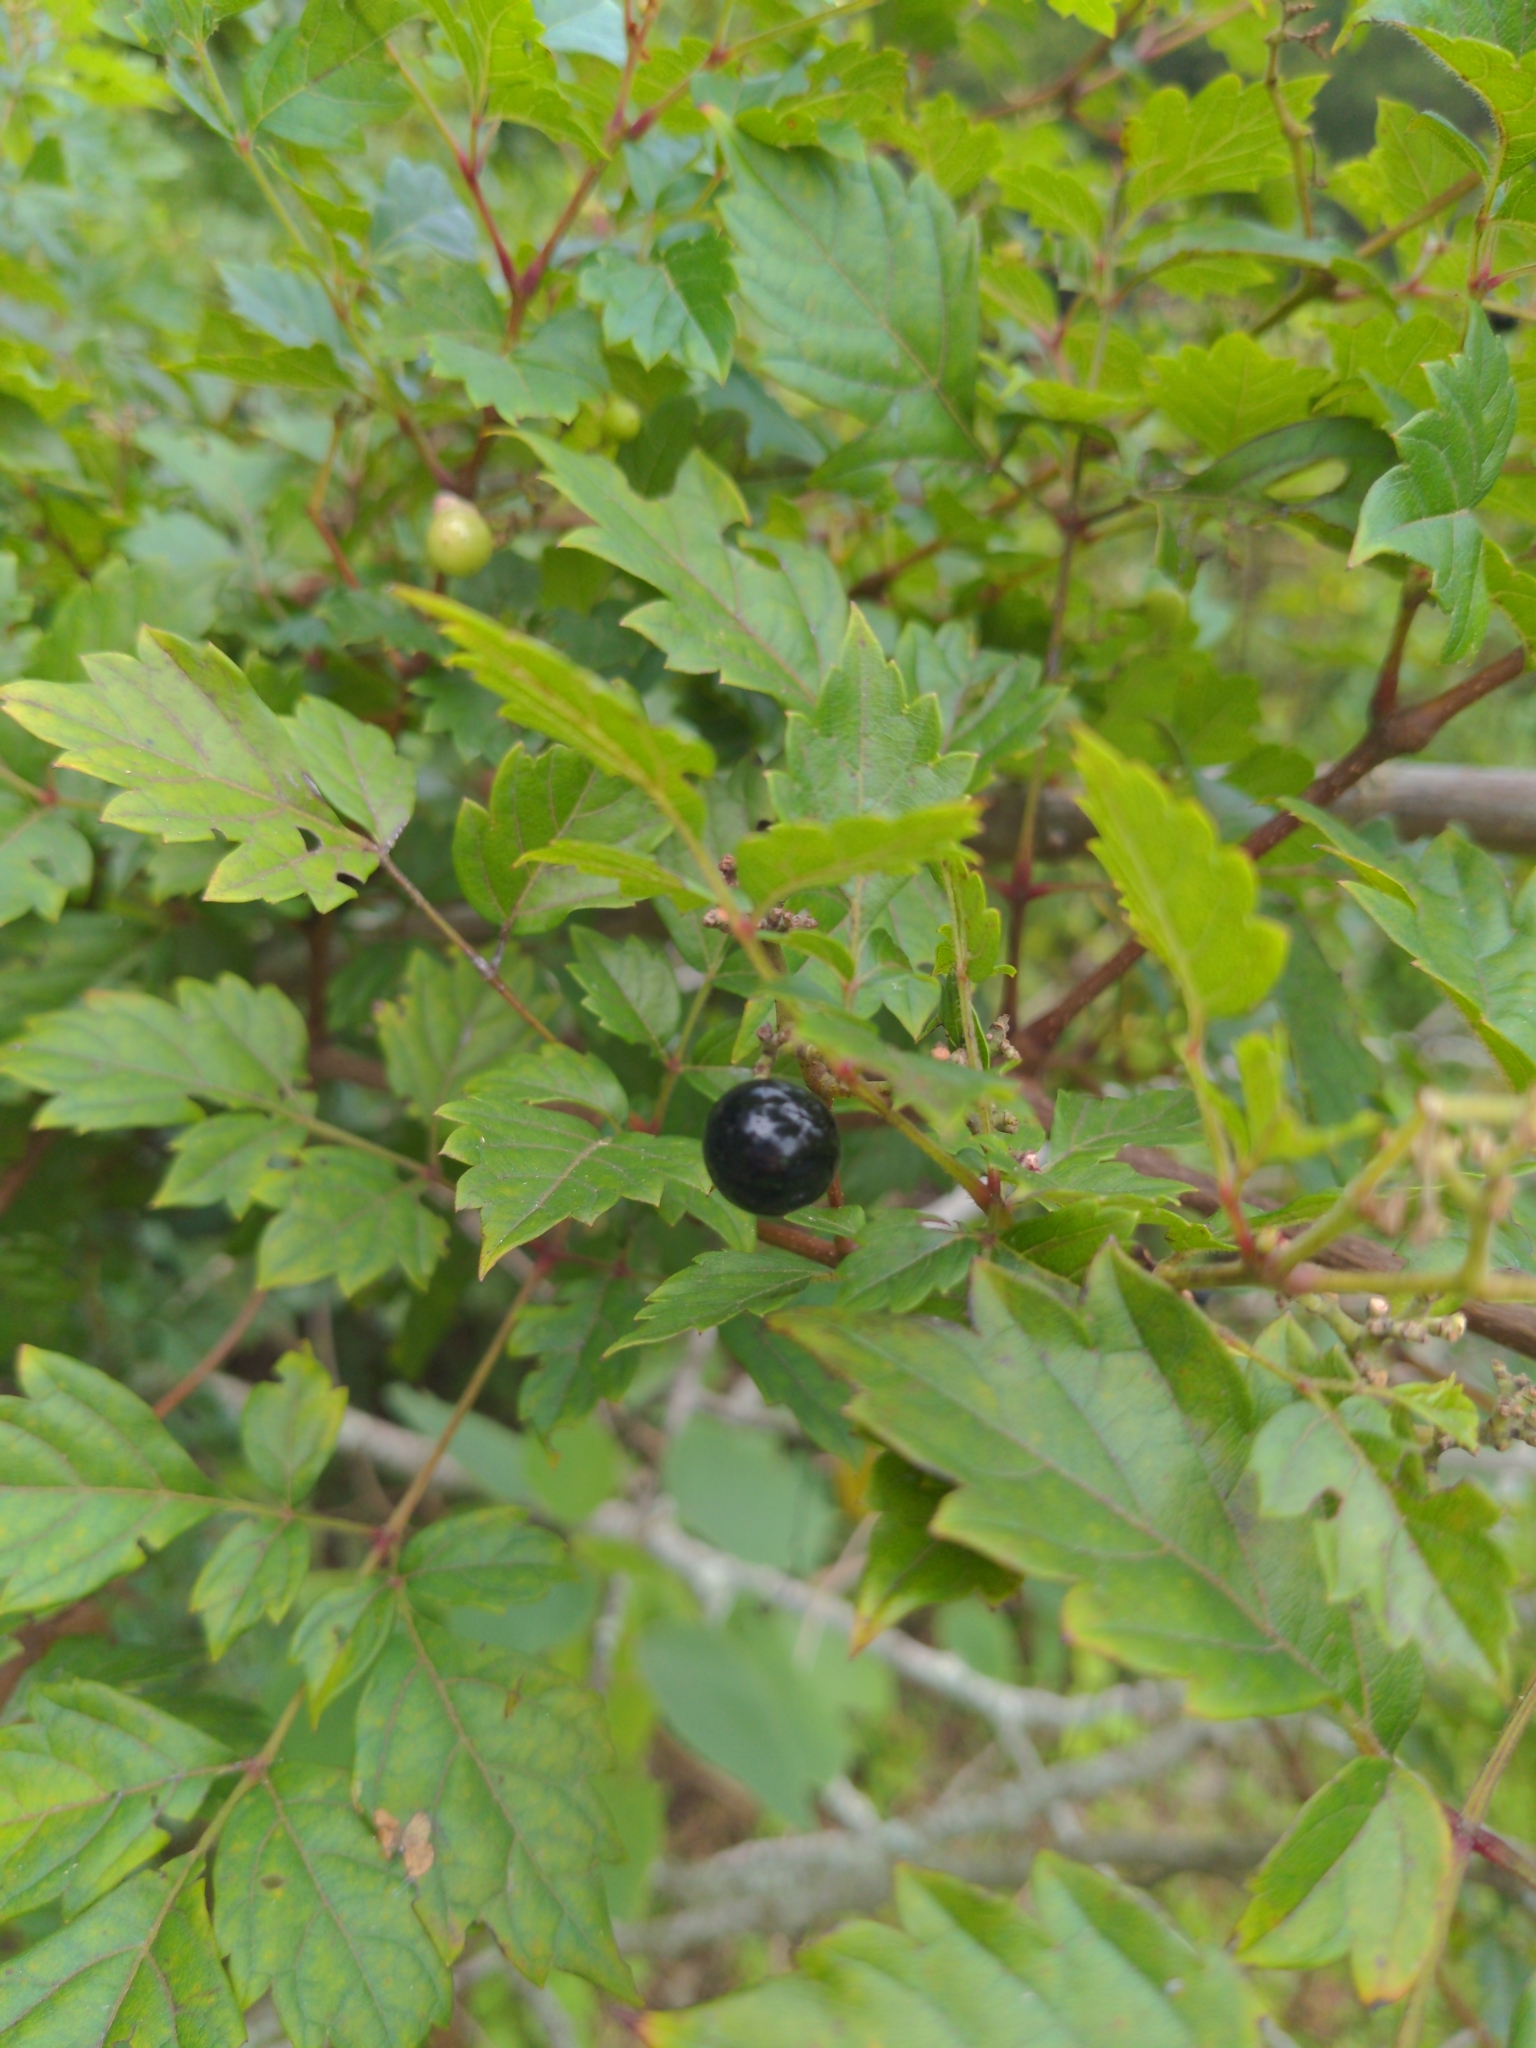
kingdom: Plantae
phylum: Tracheophyta
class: Magnoliopsida
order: Vitales
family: Vitaceae
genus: Nekemias
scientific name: Nekemias arborea
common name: Peppervine
